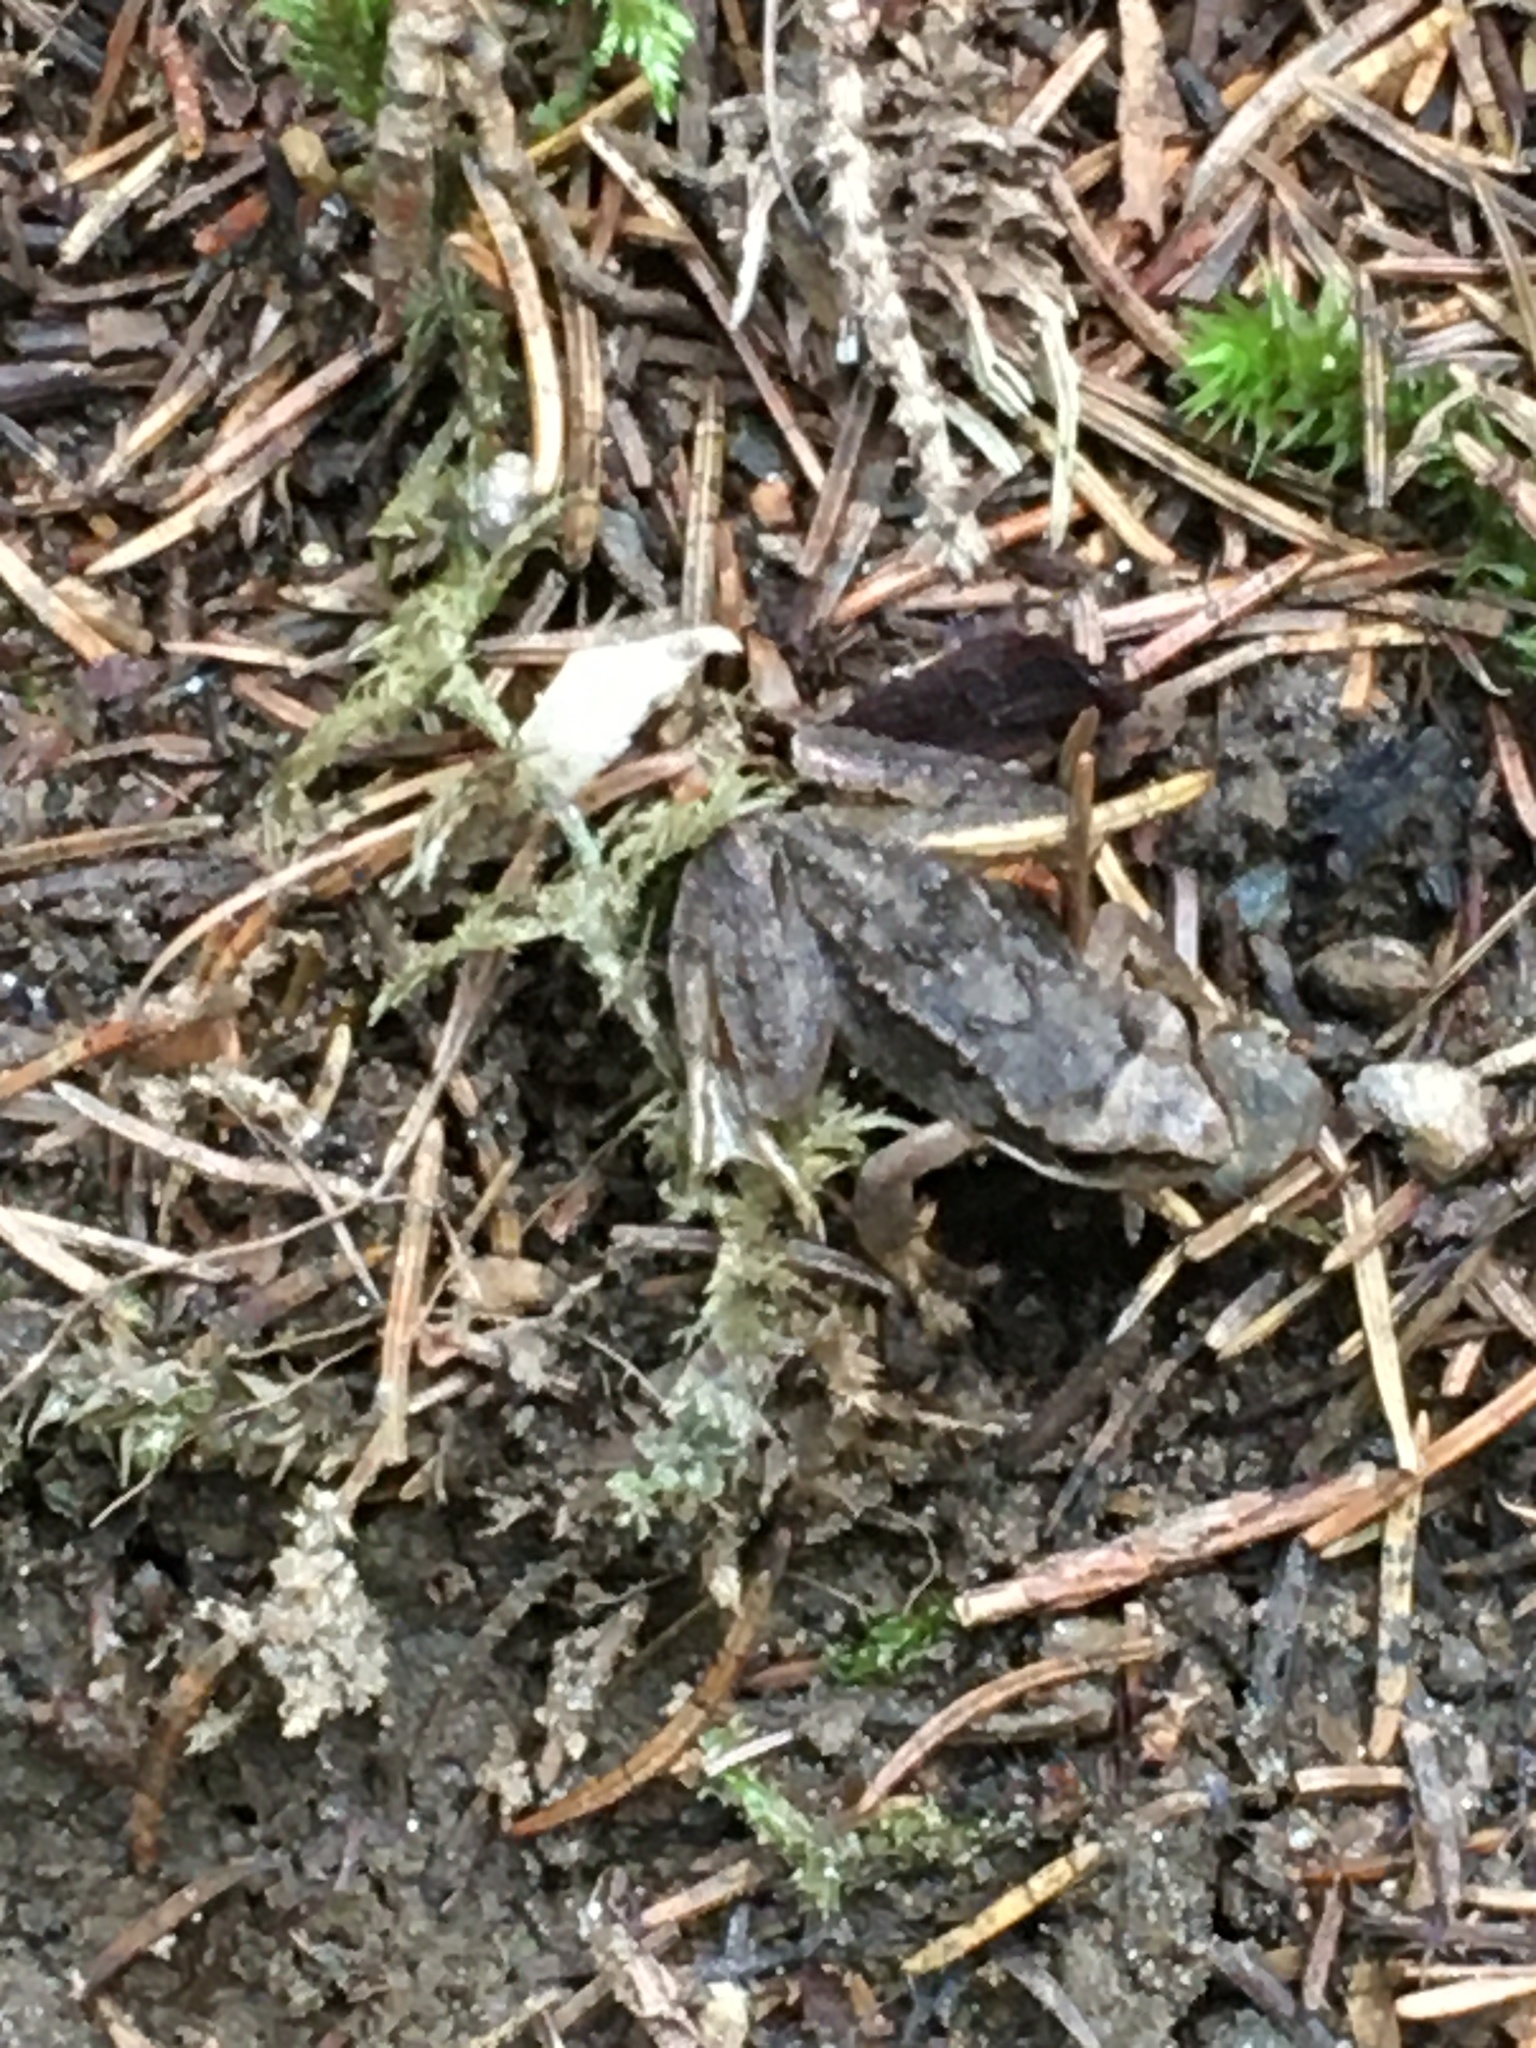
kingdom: Animalia
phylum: Chordata
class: Amphibia
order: Anura
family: Ranidae
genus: Rana
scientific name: Rana temporaria
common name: Common frog
